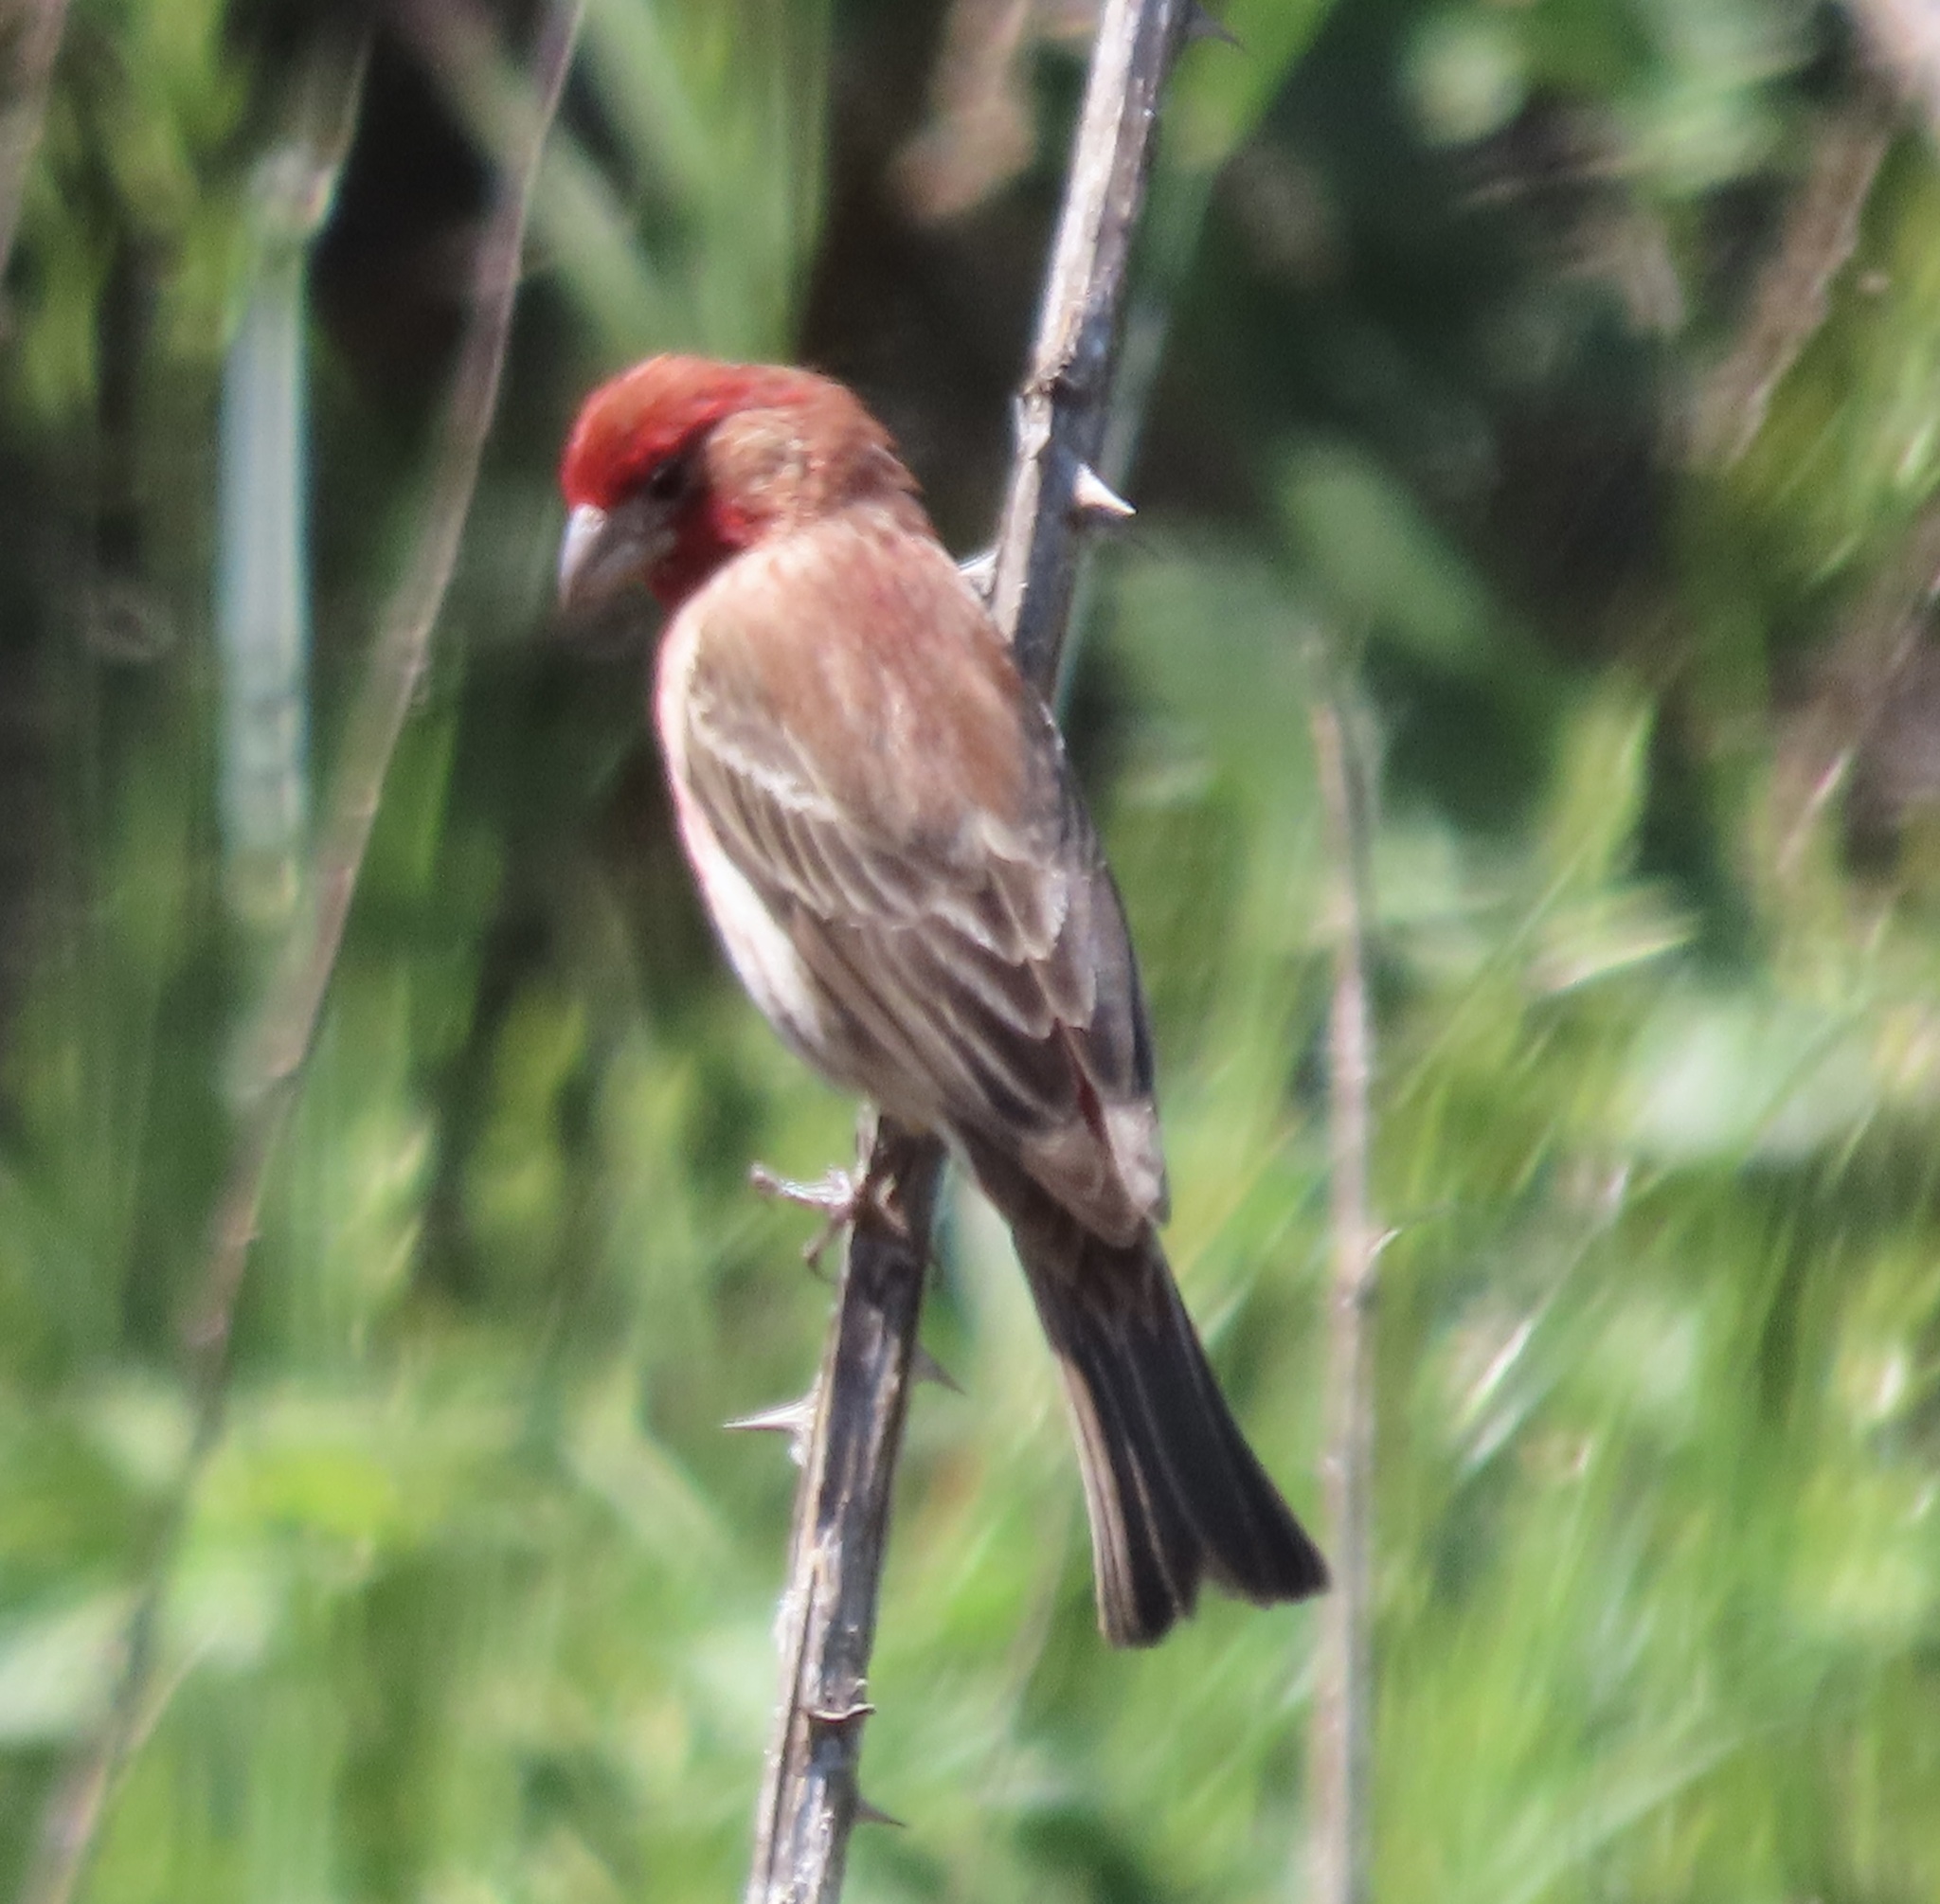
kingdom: Animalia
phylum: Chordata
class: Aves
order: Passeriformes
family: Fringillidae
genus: Haemorhous
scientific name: Haemorhous mexicanus
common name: House finch
